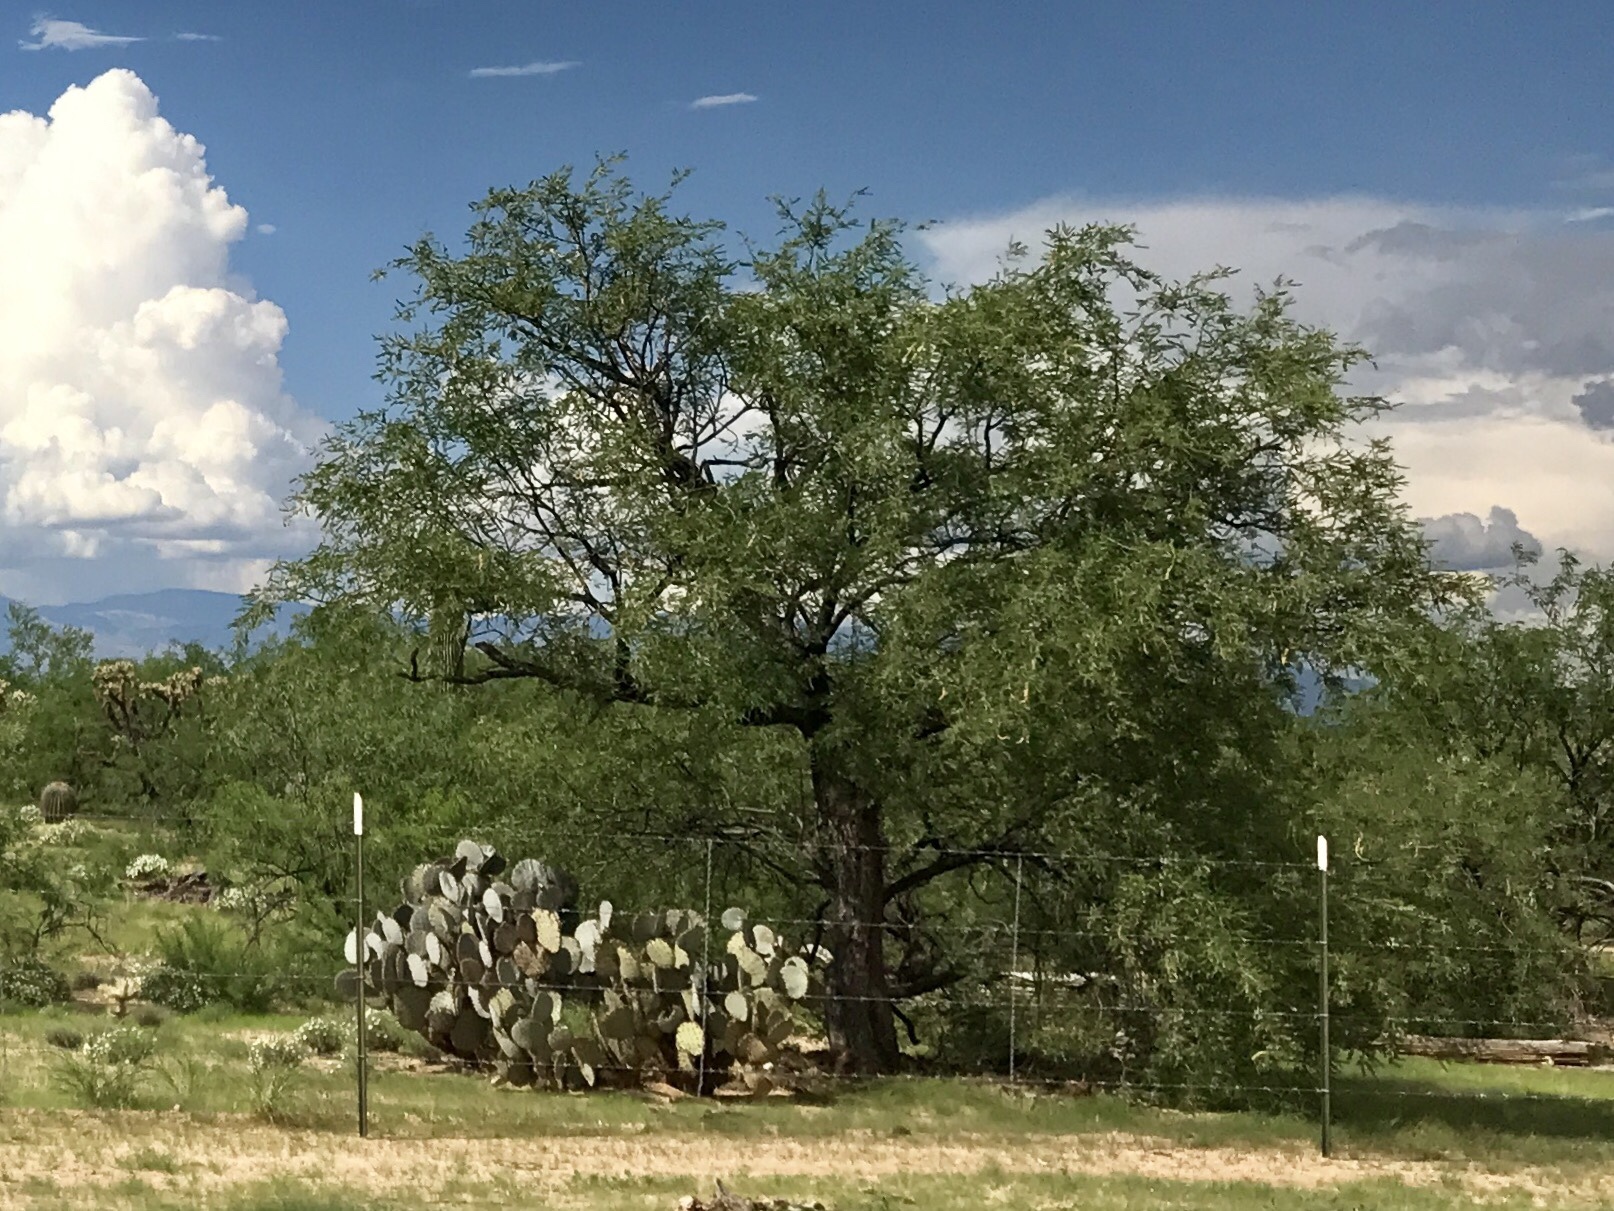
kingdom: Plantae
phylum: Tracheophyta
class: Magnoliopsida
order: Fabales
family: Fabaceae
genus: Prosopis
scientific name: Prosopis glandulosa
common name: Honey mesquite
